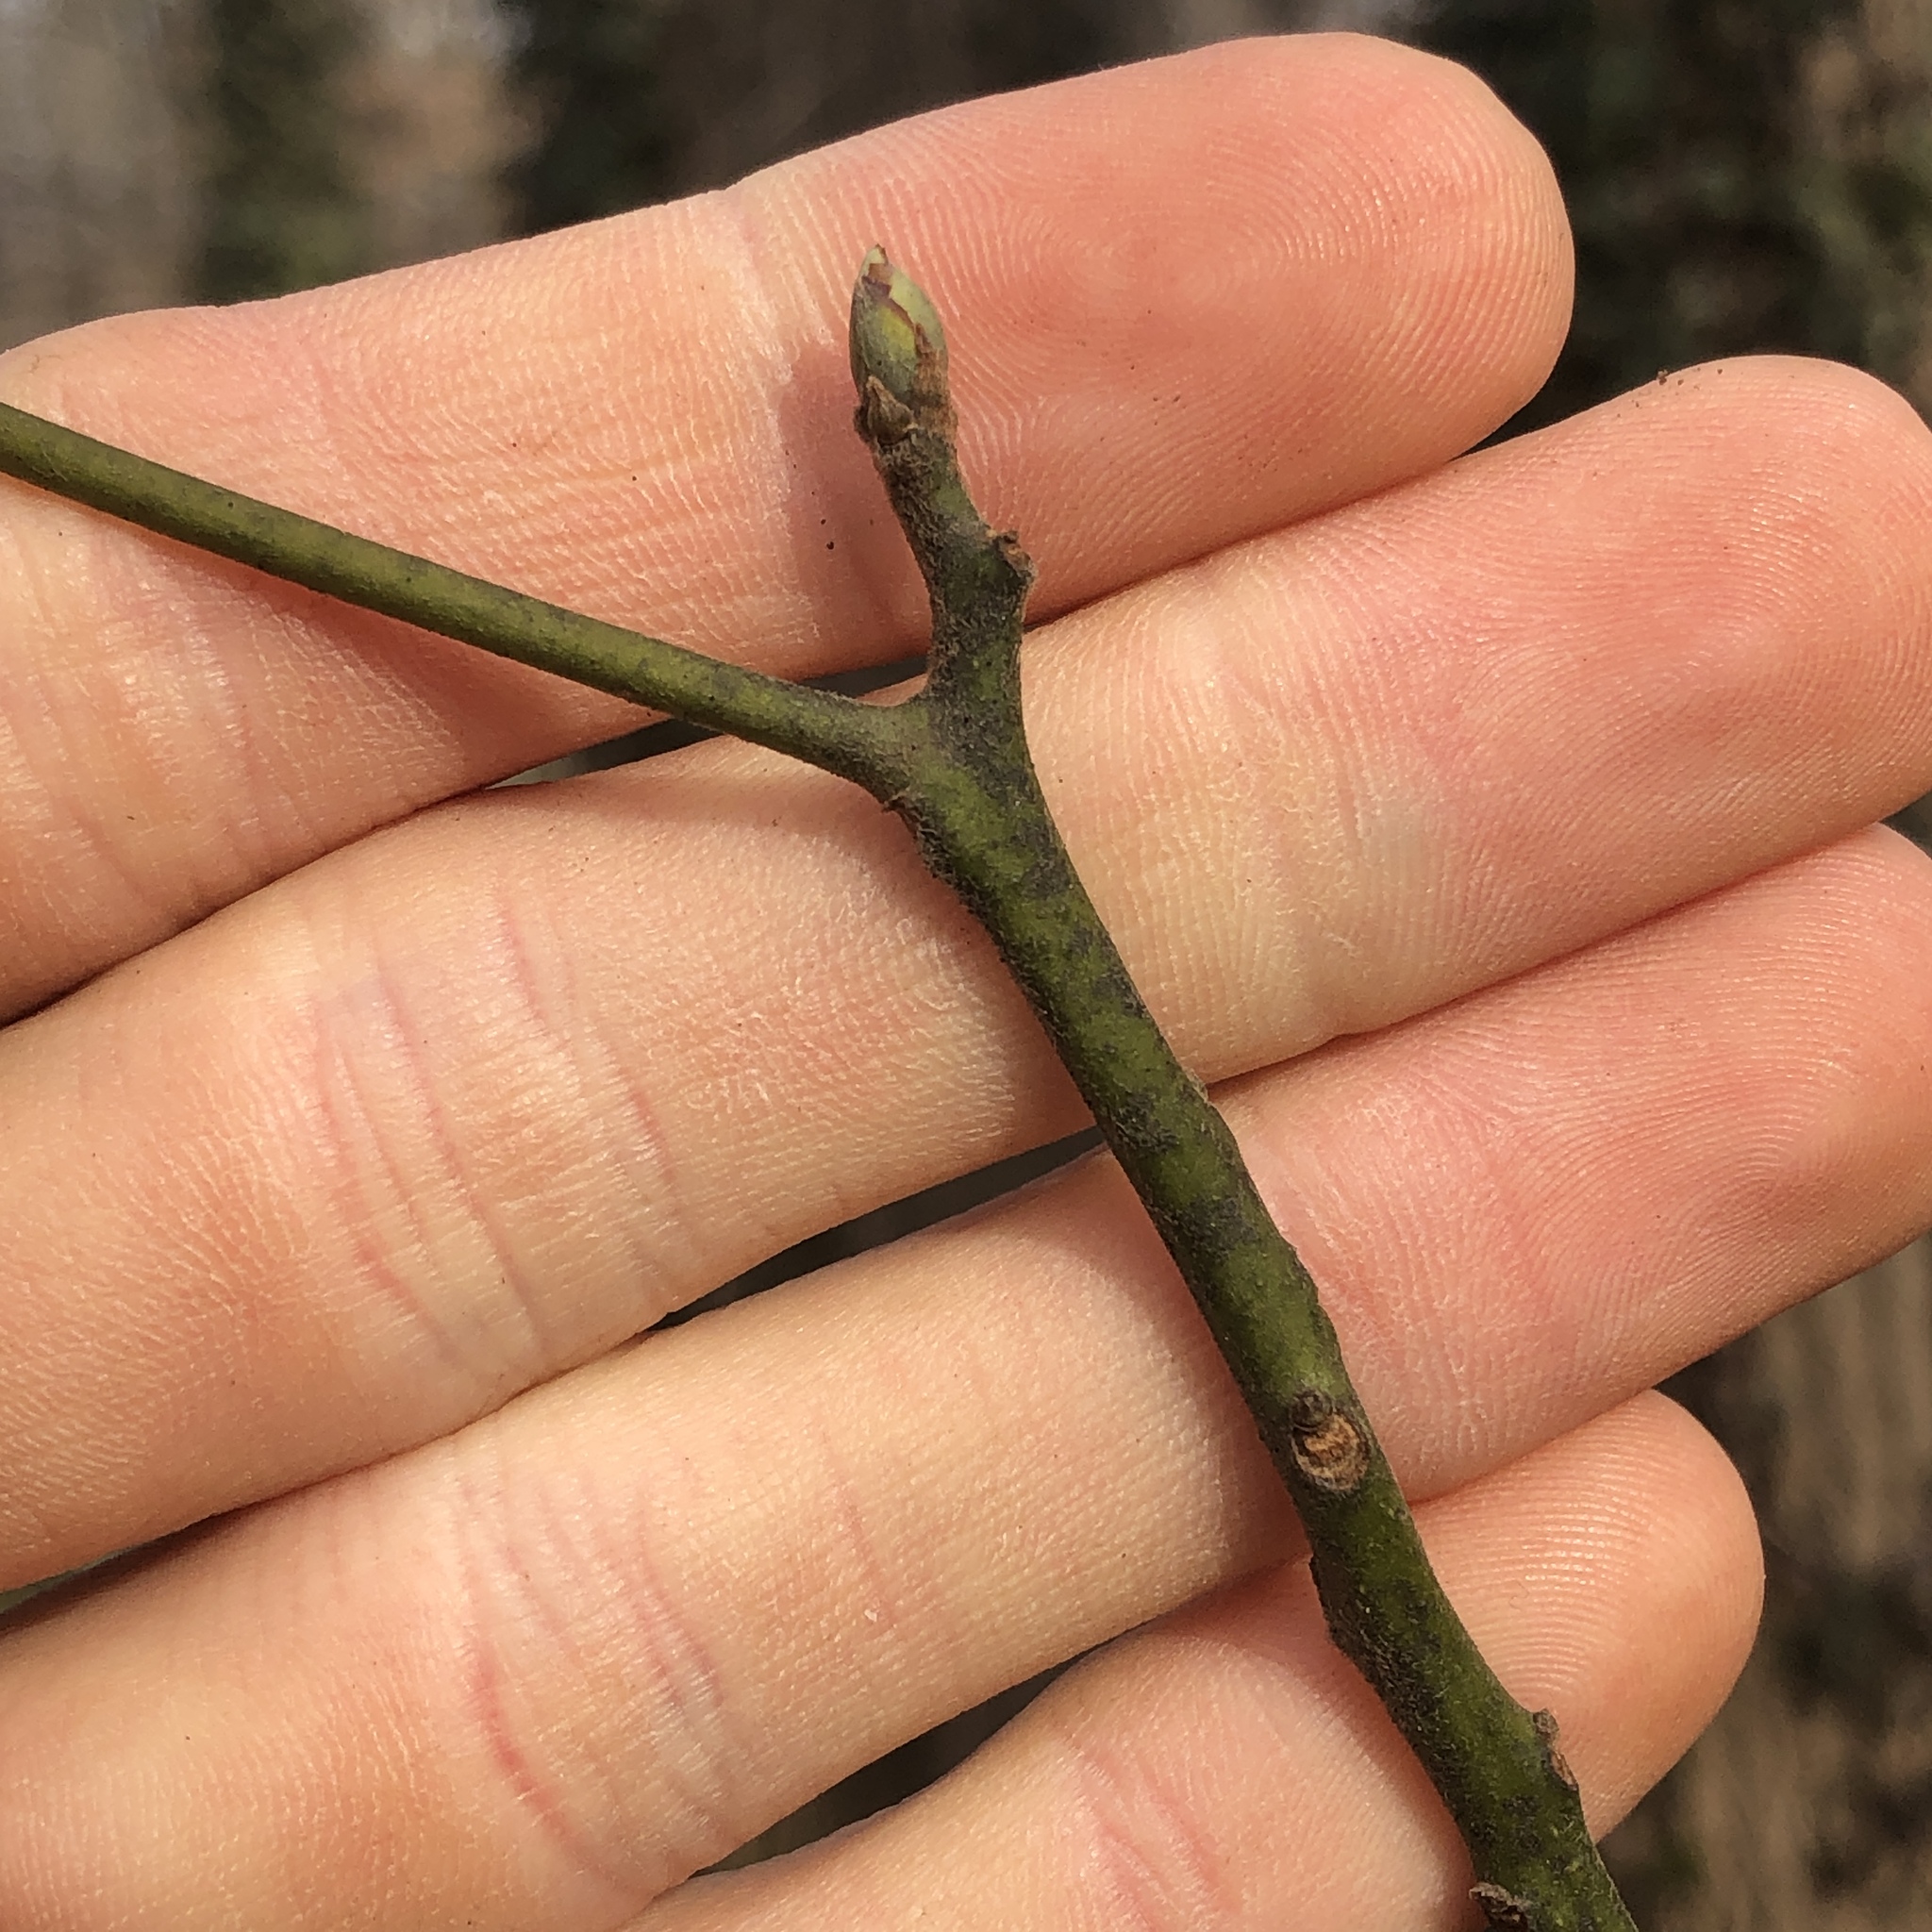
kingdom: Plantae
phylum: Tracheophyta
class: Magnoliopsida
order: Laurales
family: Lauraceae
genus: Sassafras
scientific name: Sassafras albidum
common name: Sassafras
